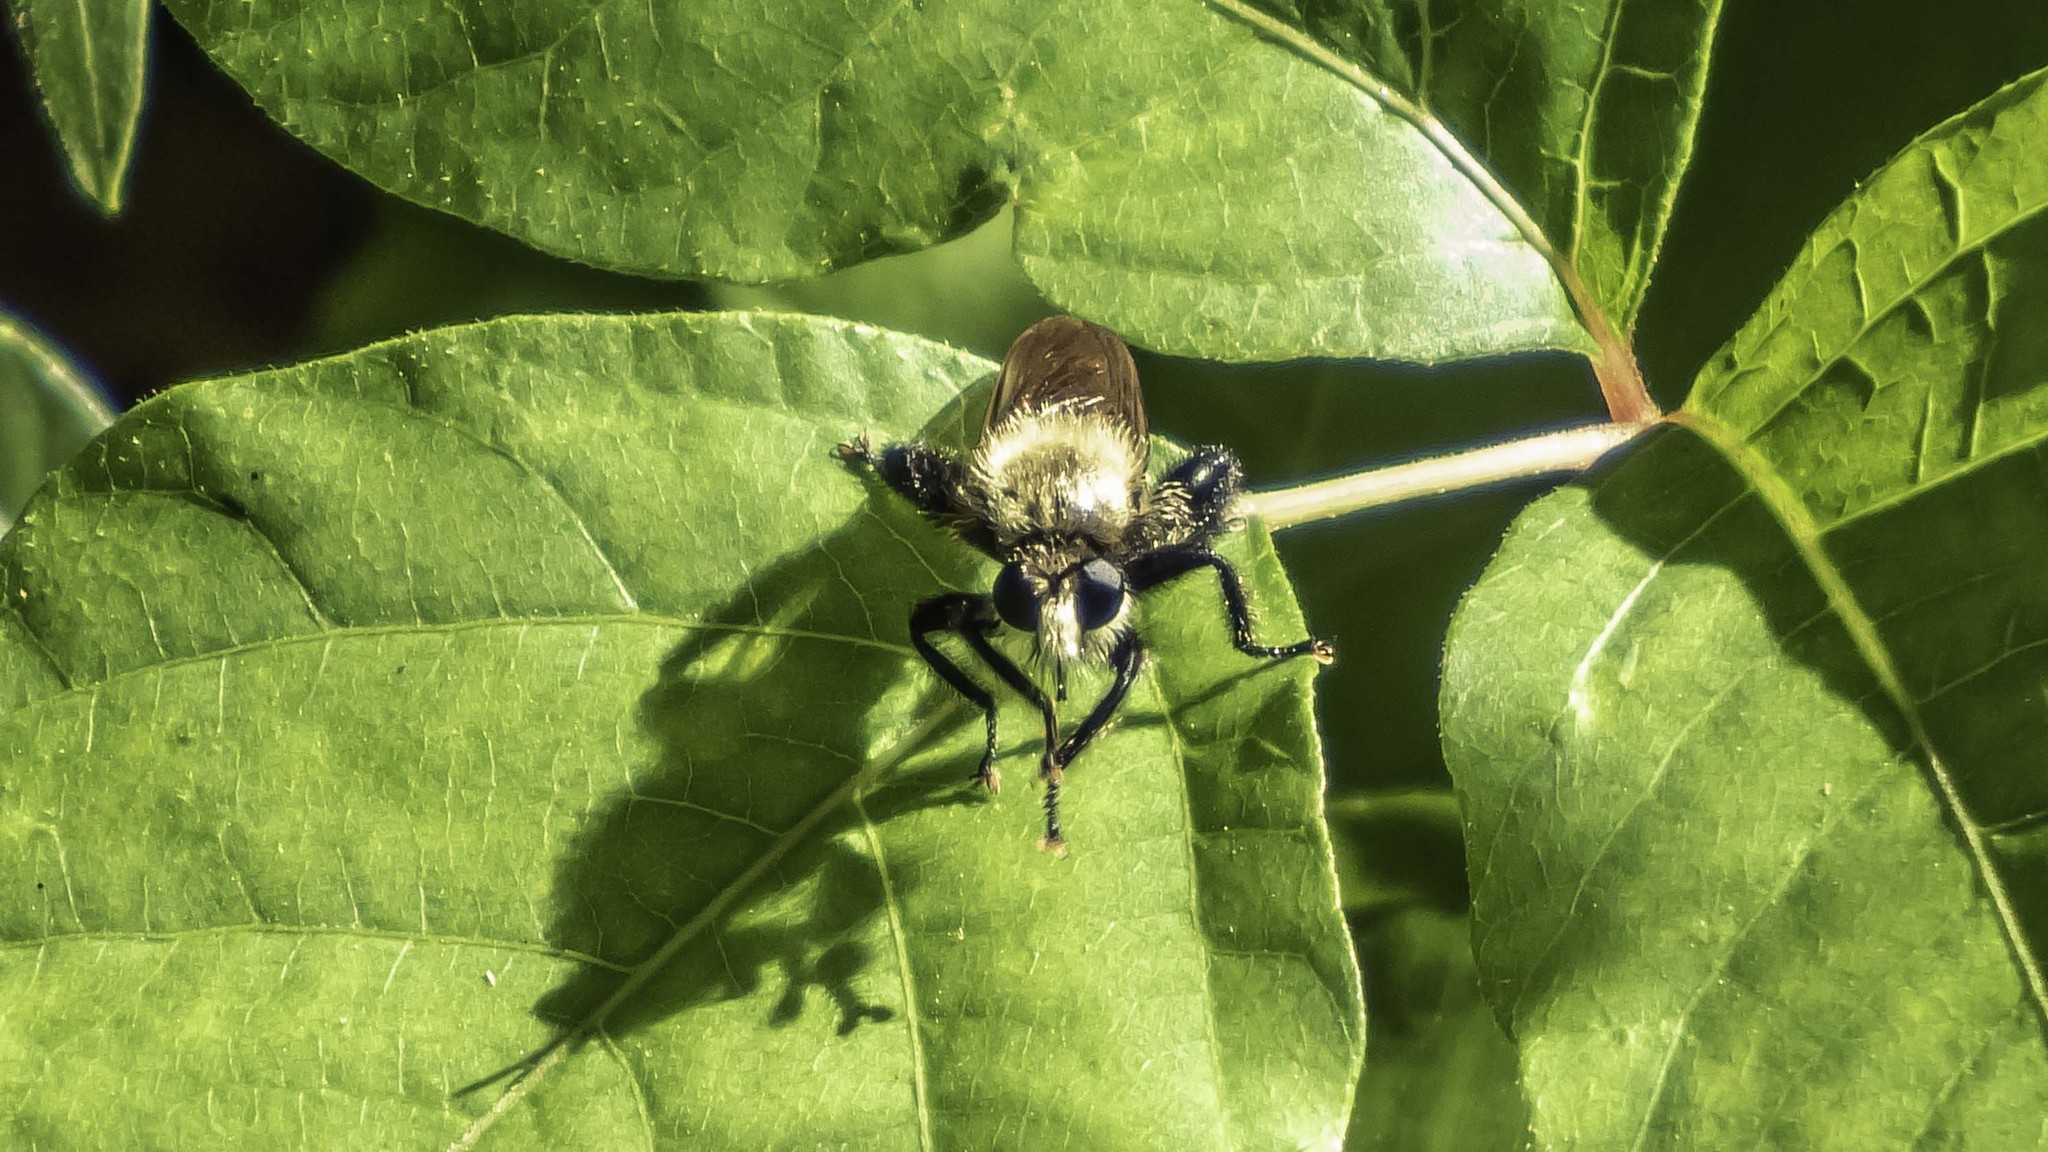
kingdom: Animalia
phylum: Arthropoda
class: Insecta
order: Diptera
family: Asilidae
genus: Laphria
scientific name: Laphria flavicollis
